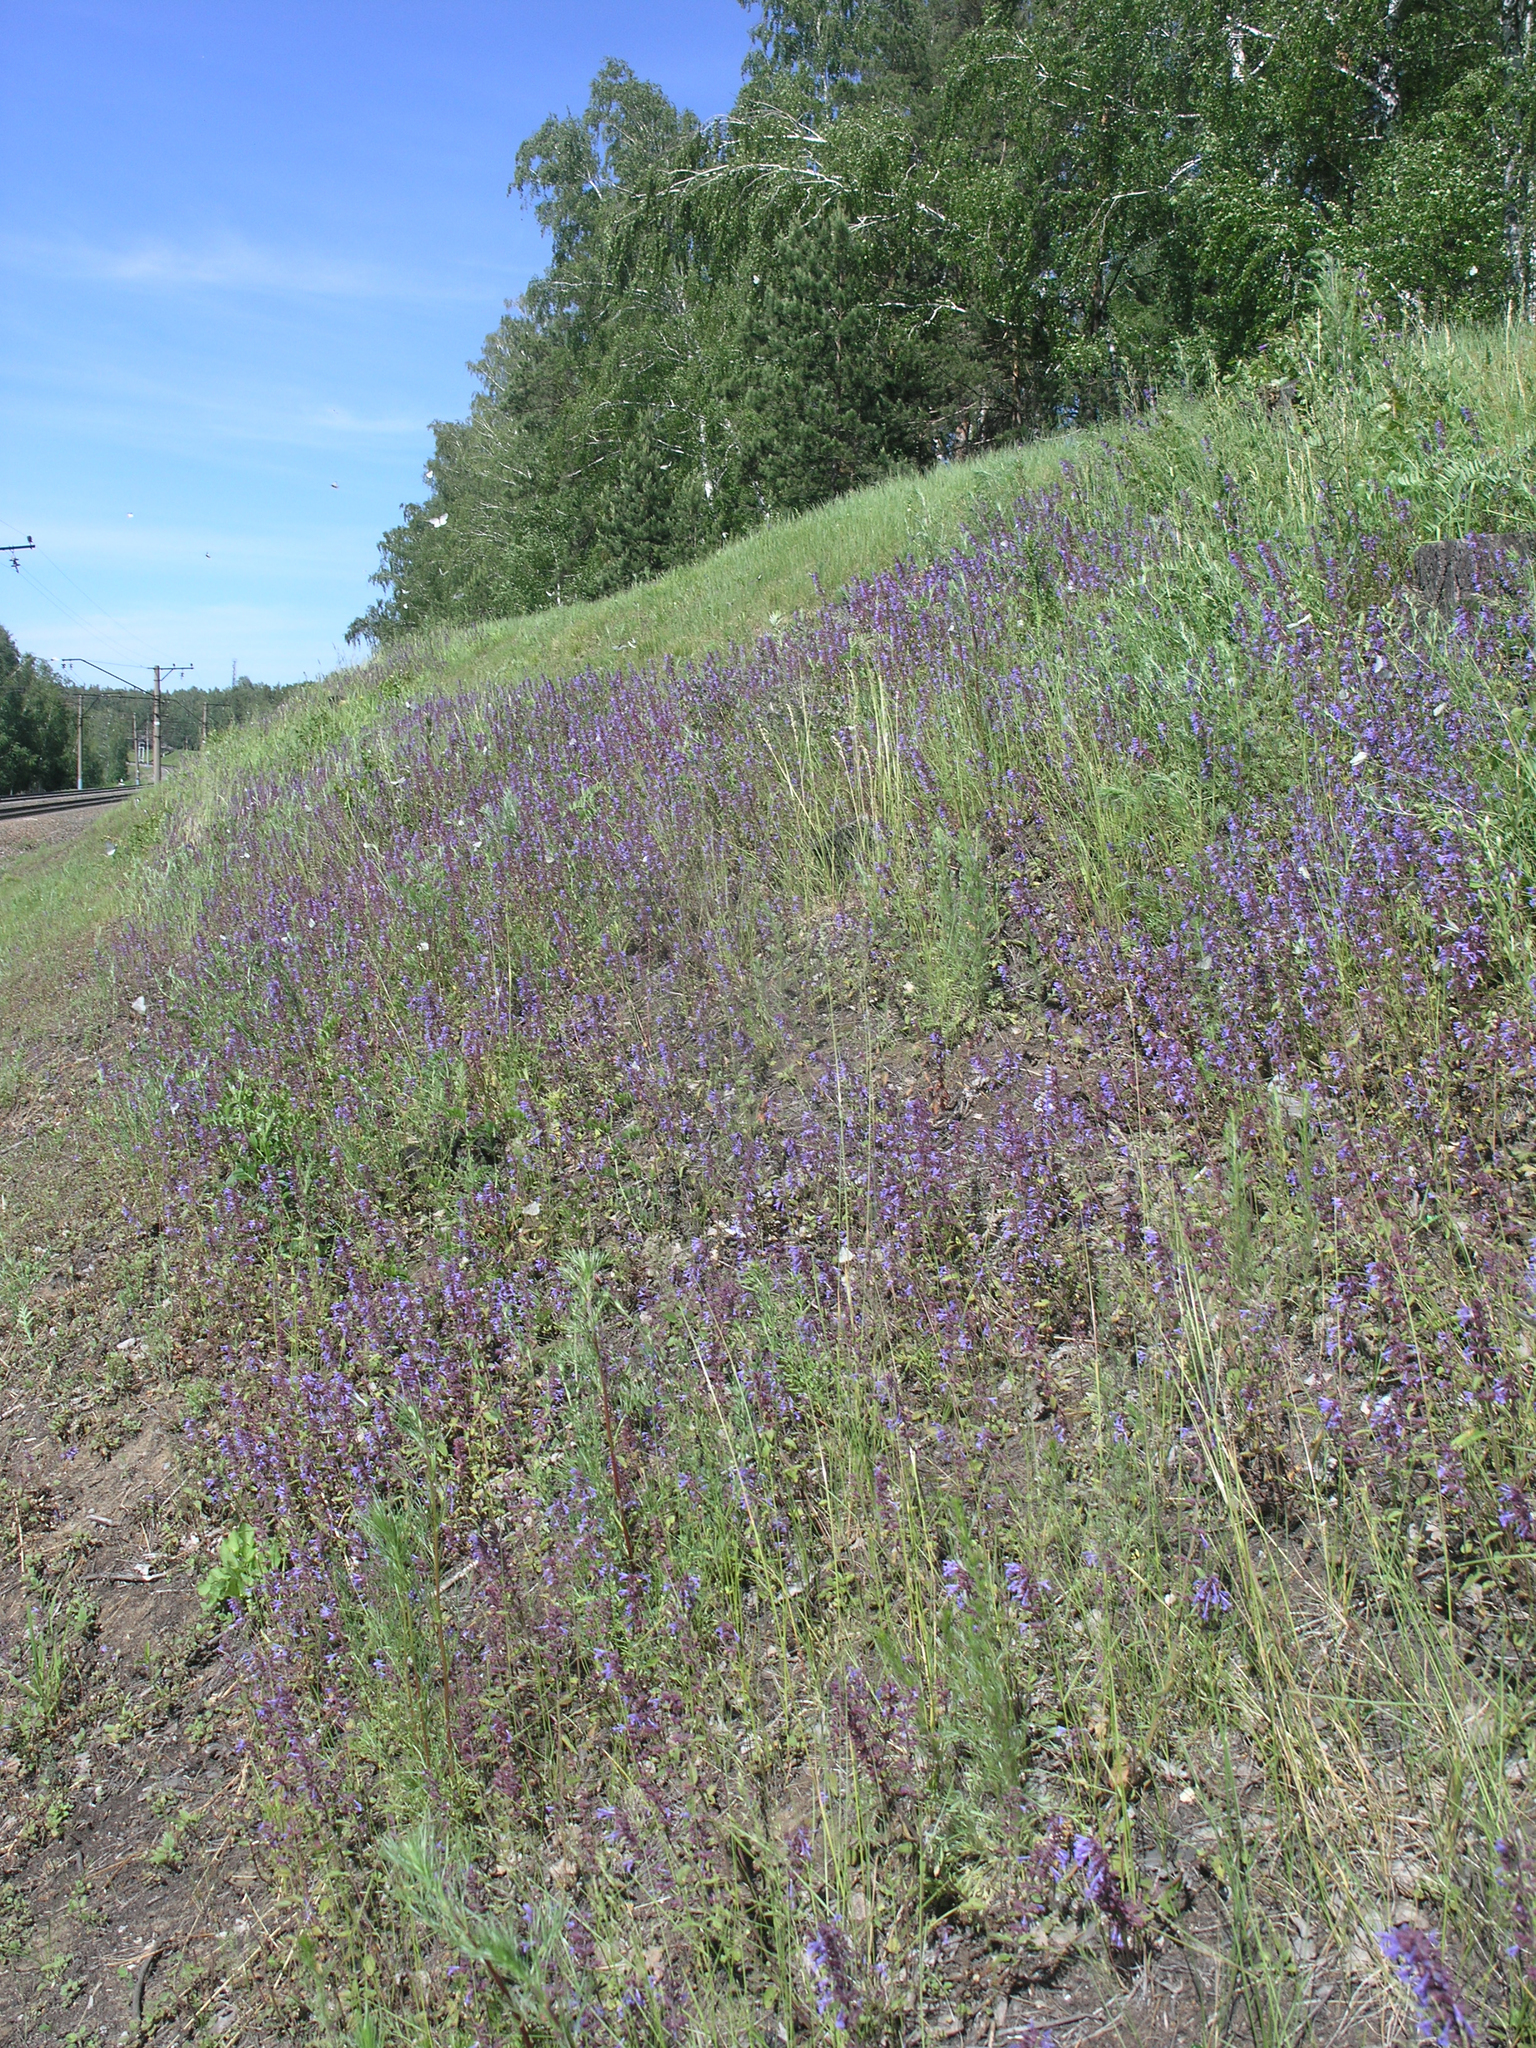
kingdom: Plantae
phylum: Tracheophyta
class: Magnoliopsida
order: Lamiales
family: Lamiaceae
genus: Dracocephalum
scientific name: Dracocephalum nutans
